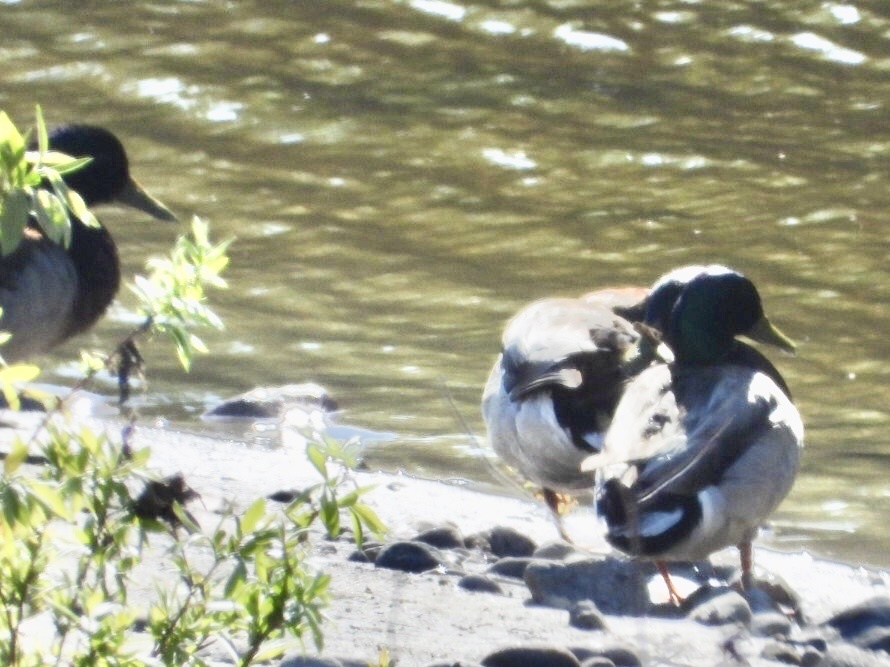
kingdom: Animalia
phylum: Chordata
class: Aves
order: Anseriformes
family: Anatidae
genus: Anas
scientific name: Anas platyrhynchos
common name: Mallard
